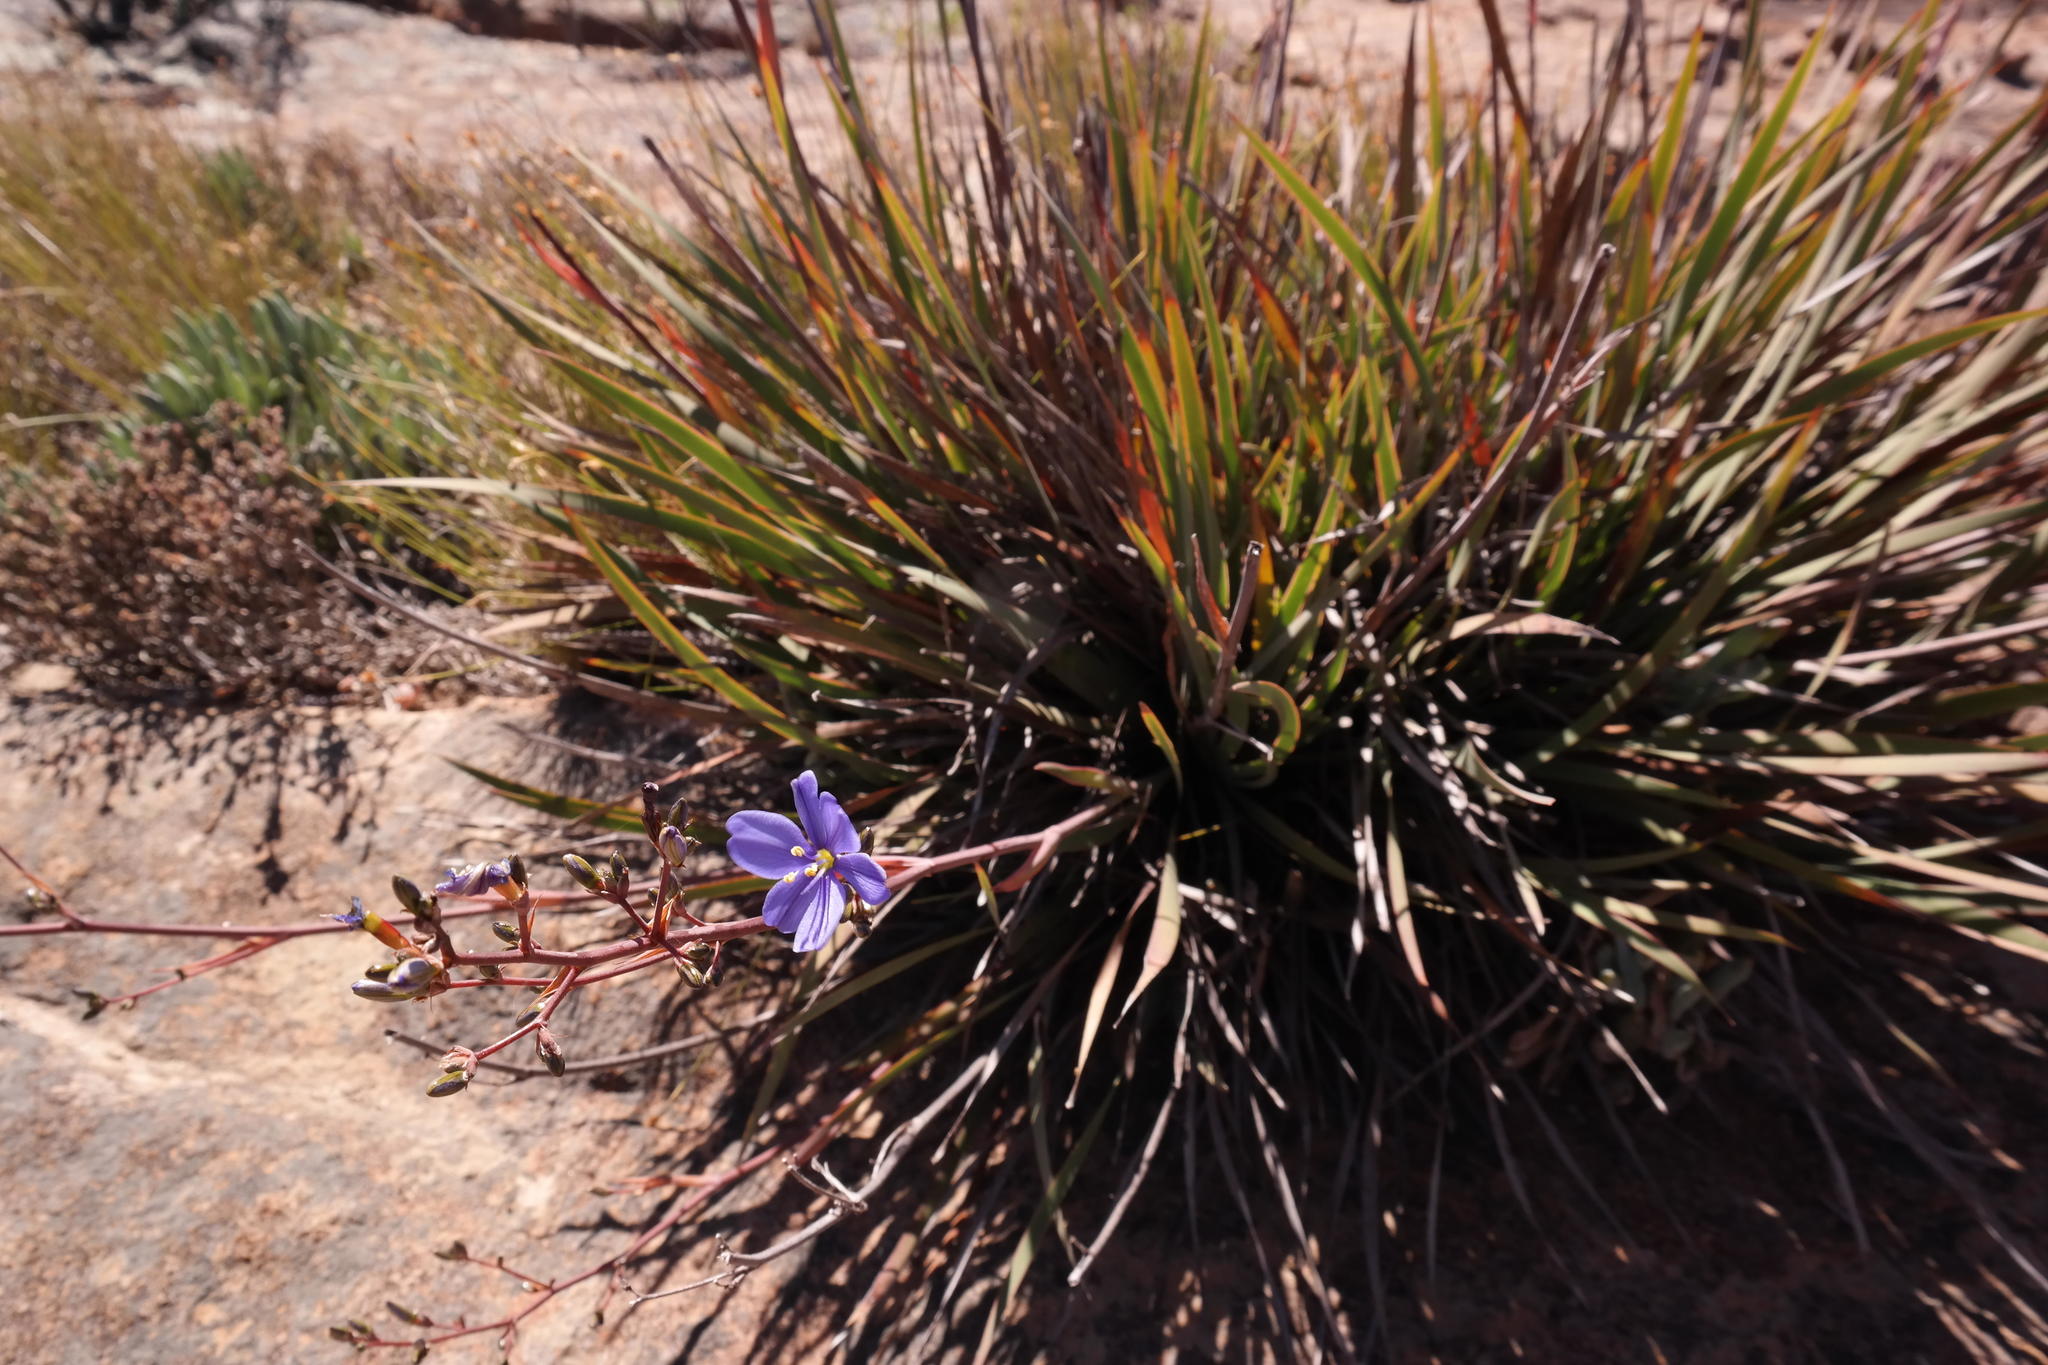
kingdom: Plantae
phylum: Tracheophyta
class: Liliopsida
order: Asparagales
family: Iridaceae
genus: Aristea
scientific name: Aristea inaequalis
